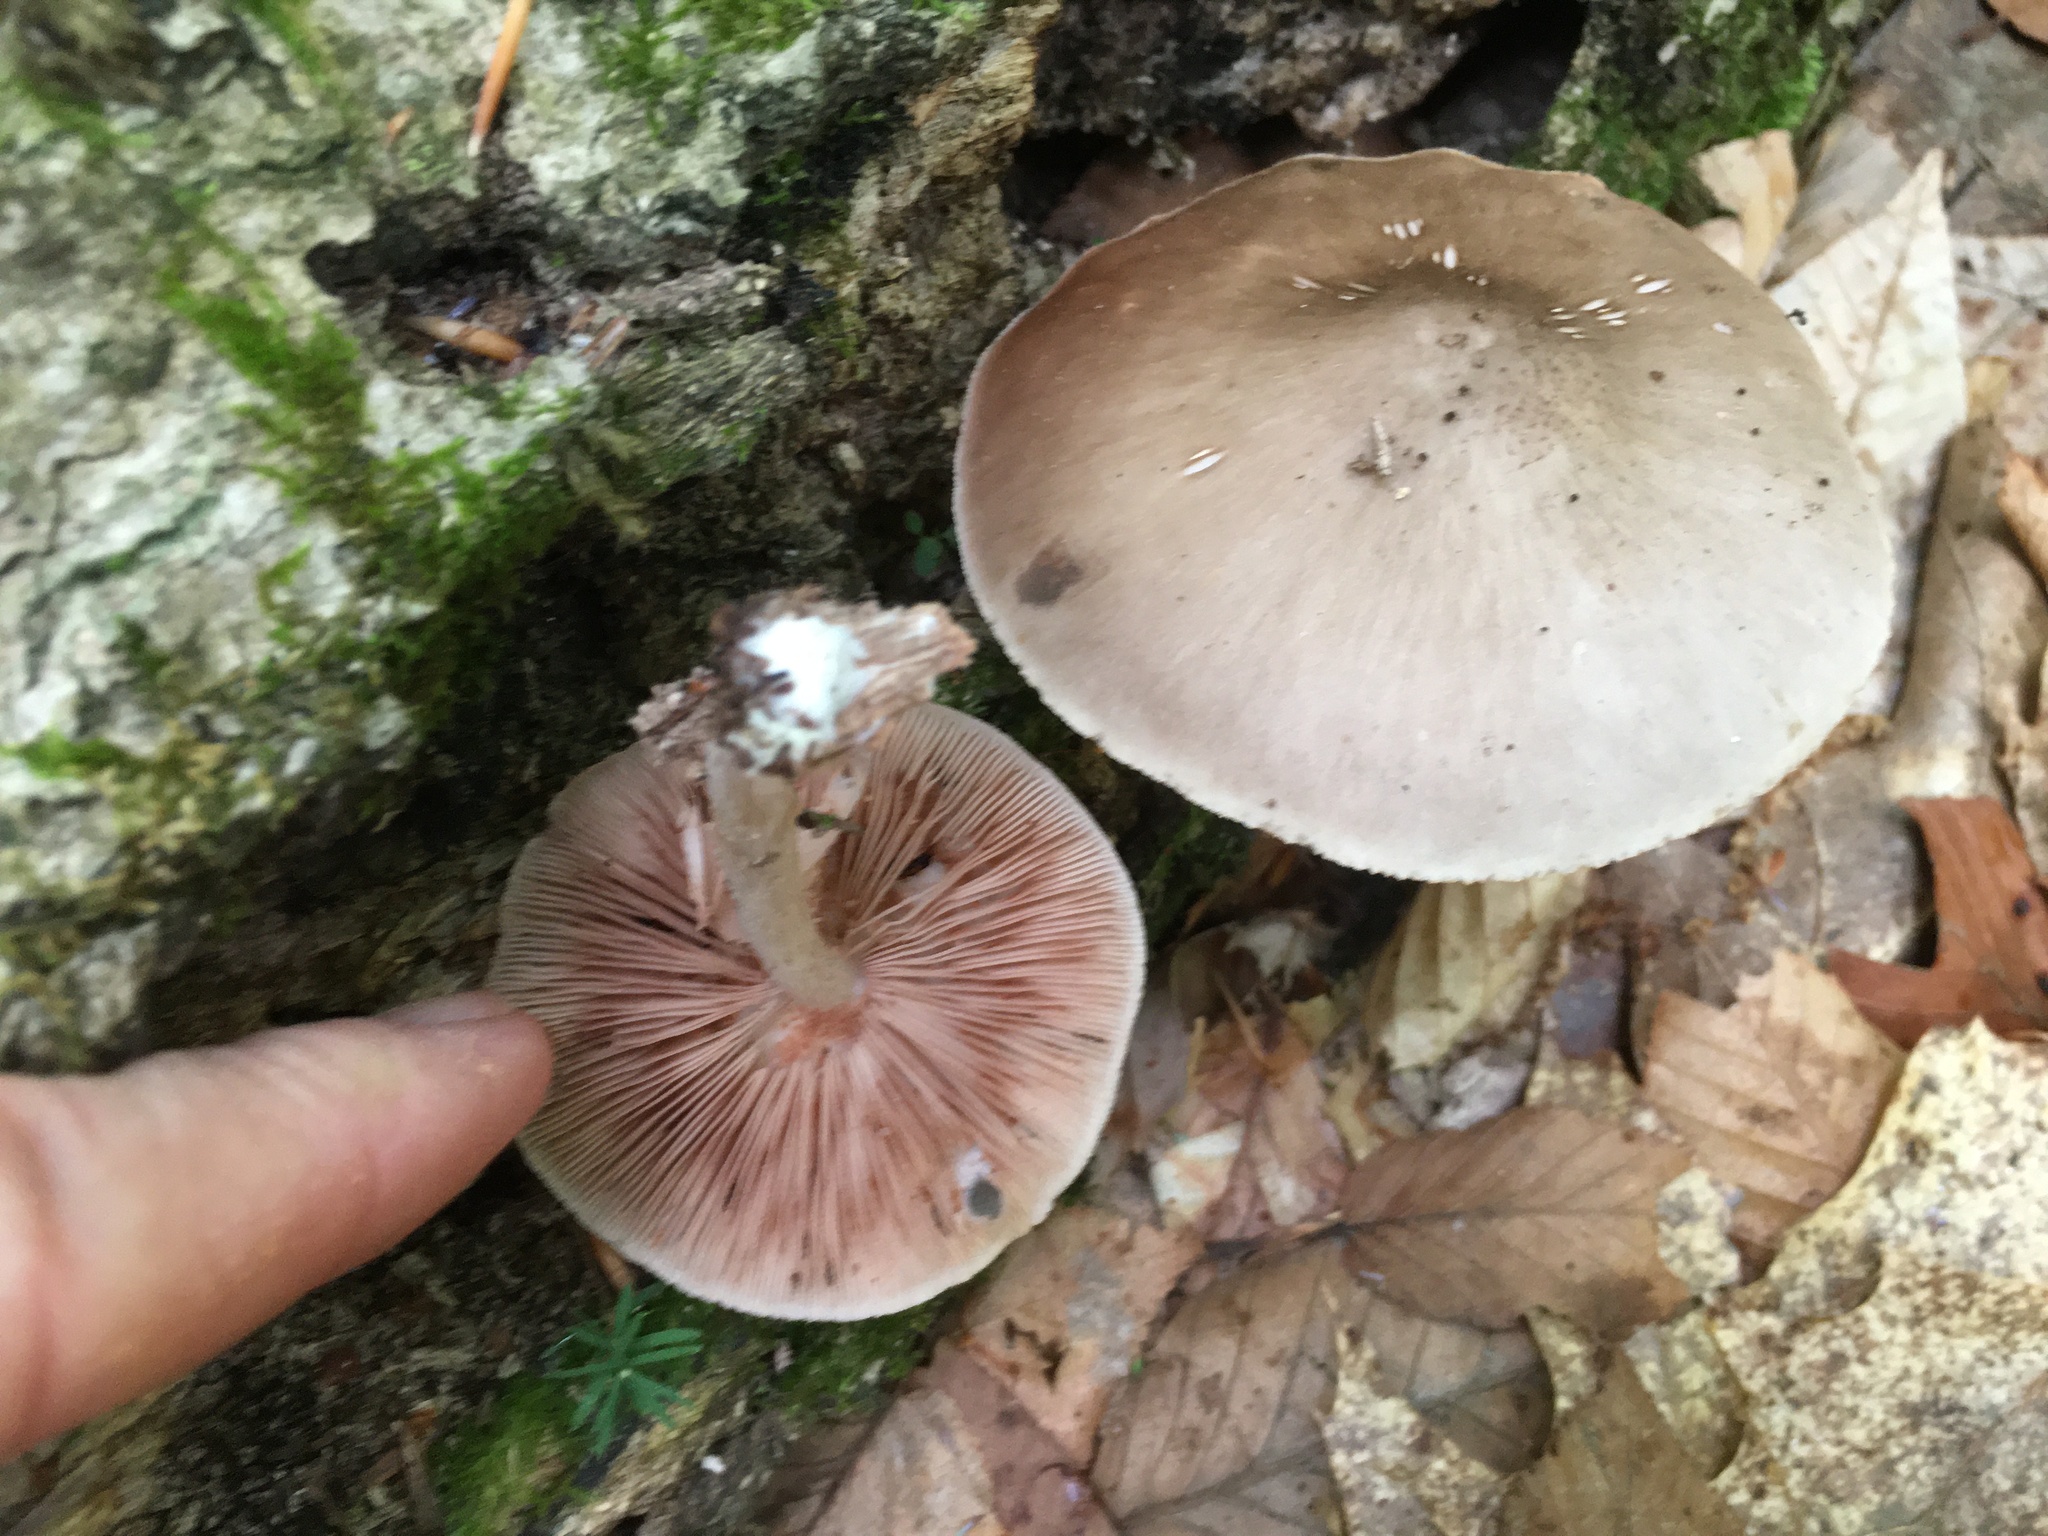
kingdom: Fungi
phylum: Basidiomycota
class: Agaricomycetes
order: Agaricales
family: Pluteaceae
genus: Pluteus
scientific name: Pluteus cervinus
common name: Deer shield
